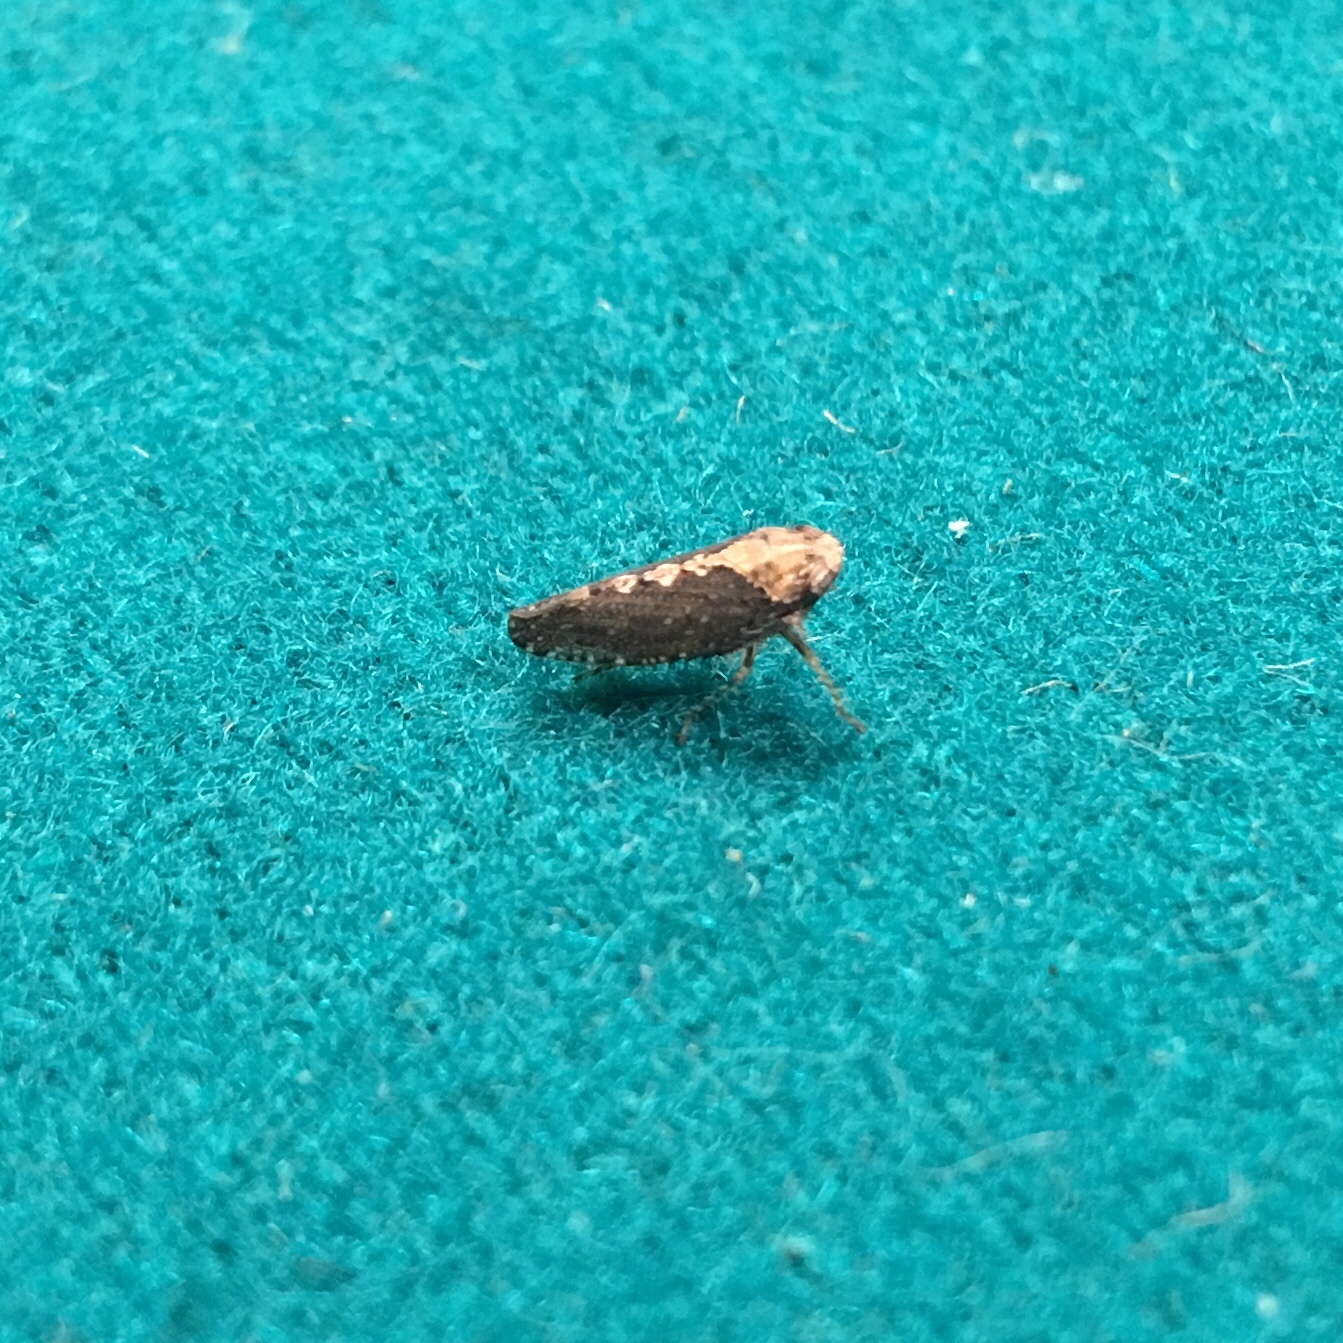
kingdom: Animalia
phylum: Arthropoda
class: Insecta
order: Hemiptera
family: Cicadellidae
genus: Excultanus
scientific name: Excultanus excultus
